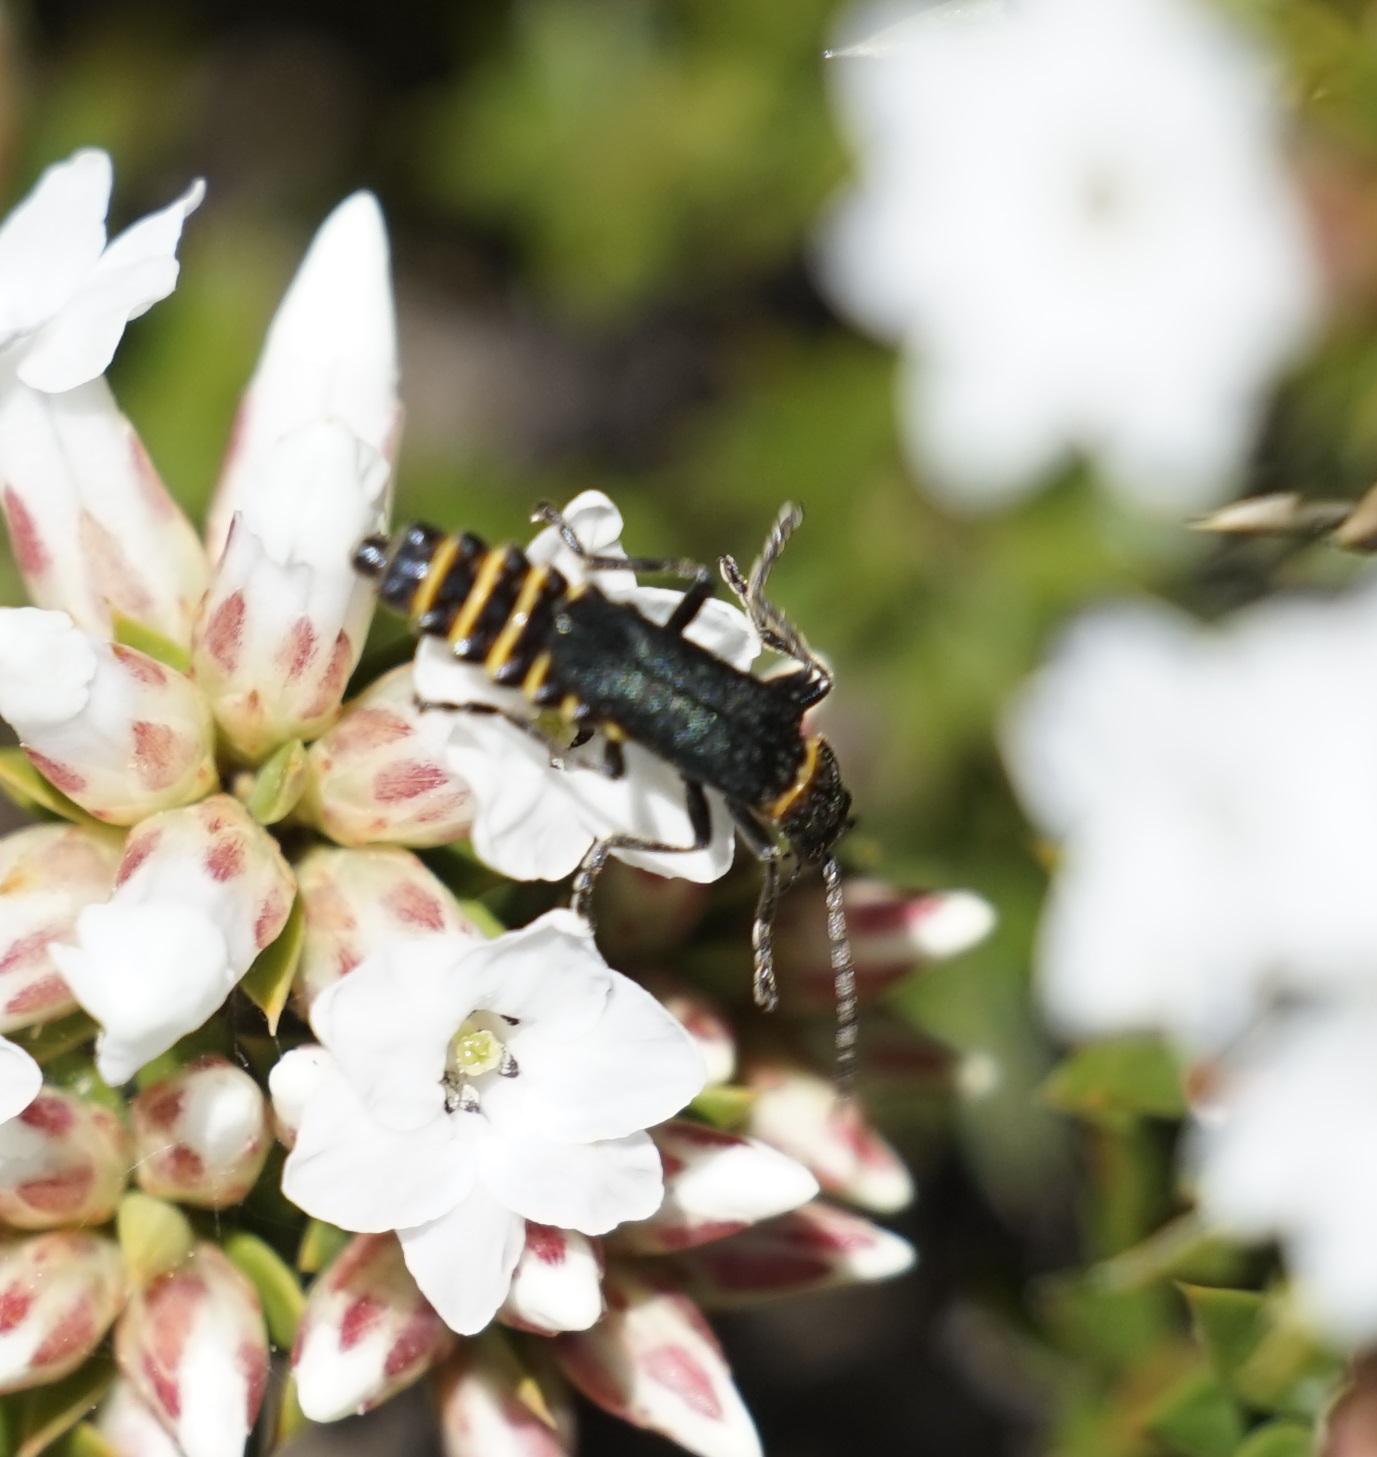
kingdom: Animalia
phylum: Arthropoda
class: Insecta
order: Coleoptera
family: Cantharidae
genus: Chauliognathus
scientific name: Chauliognathus
